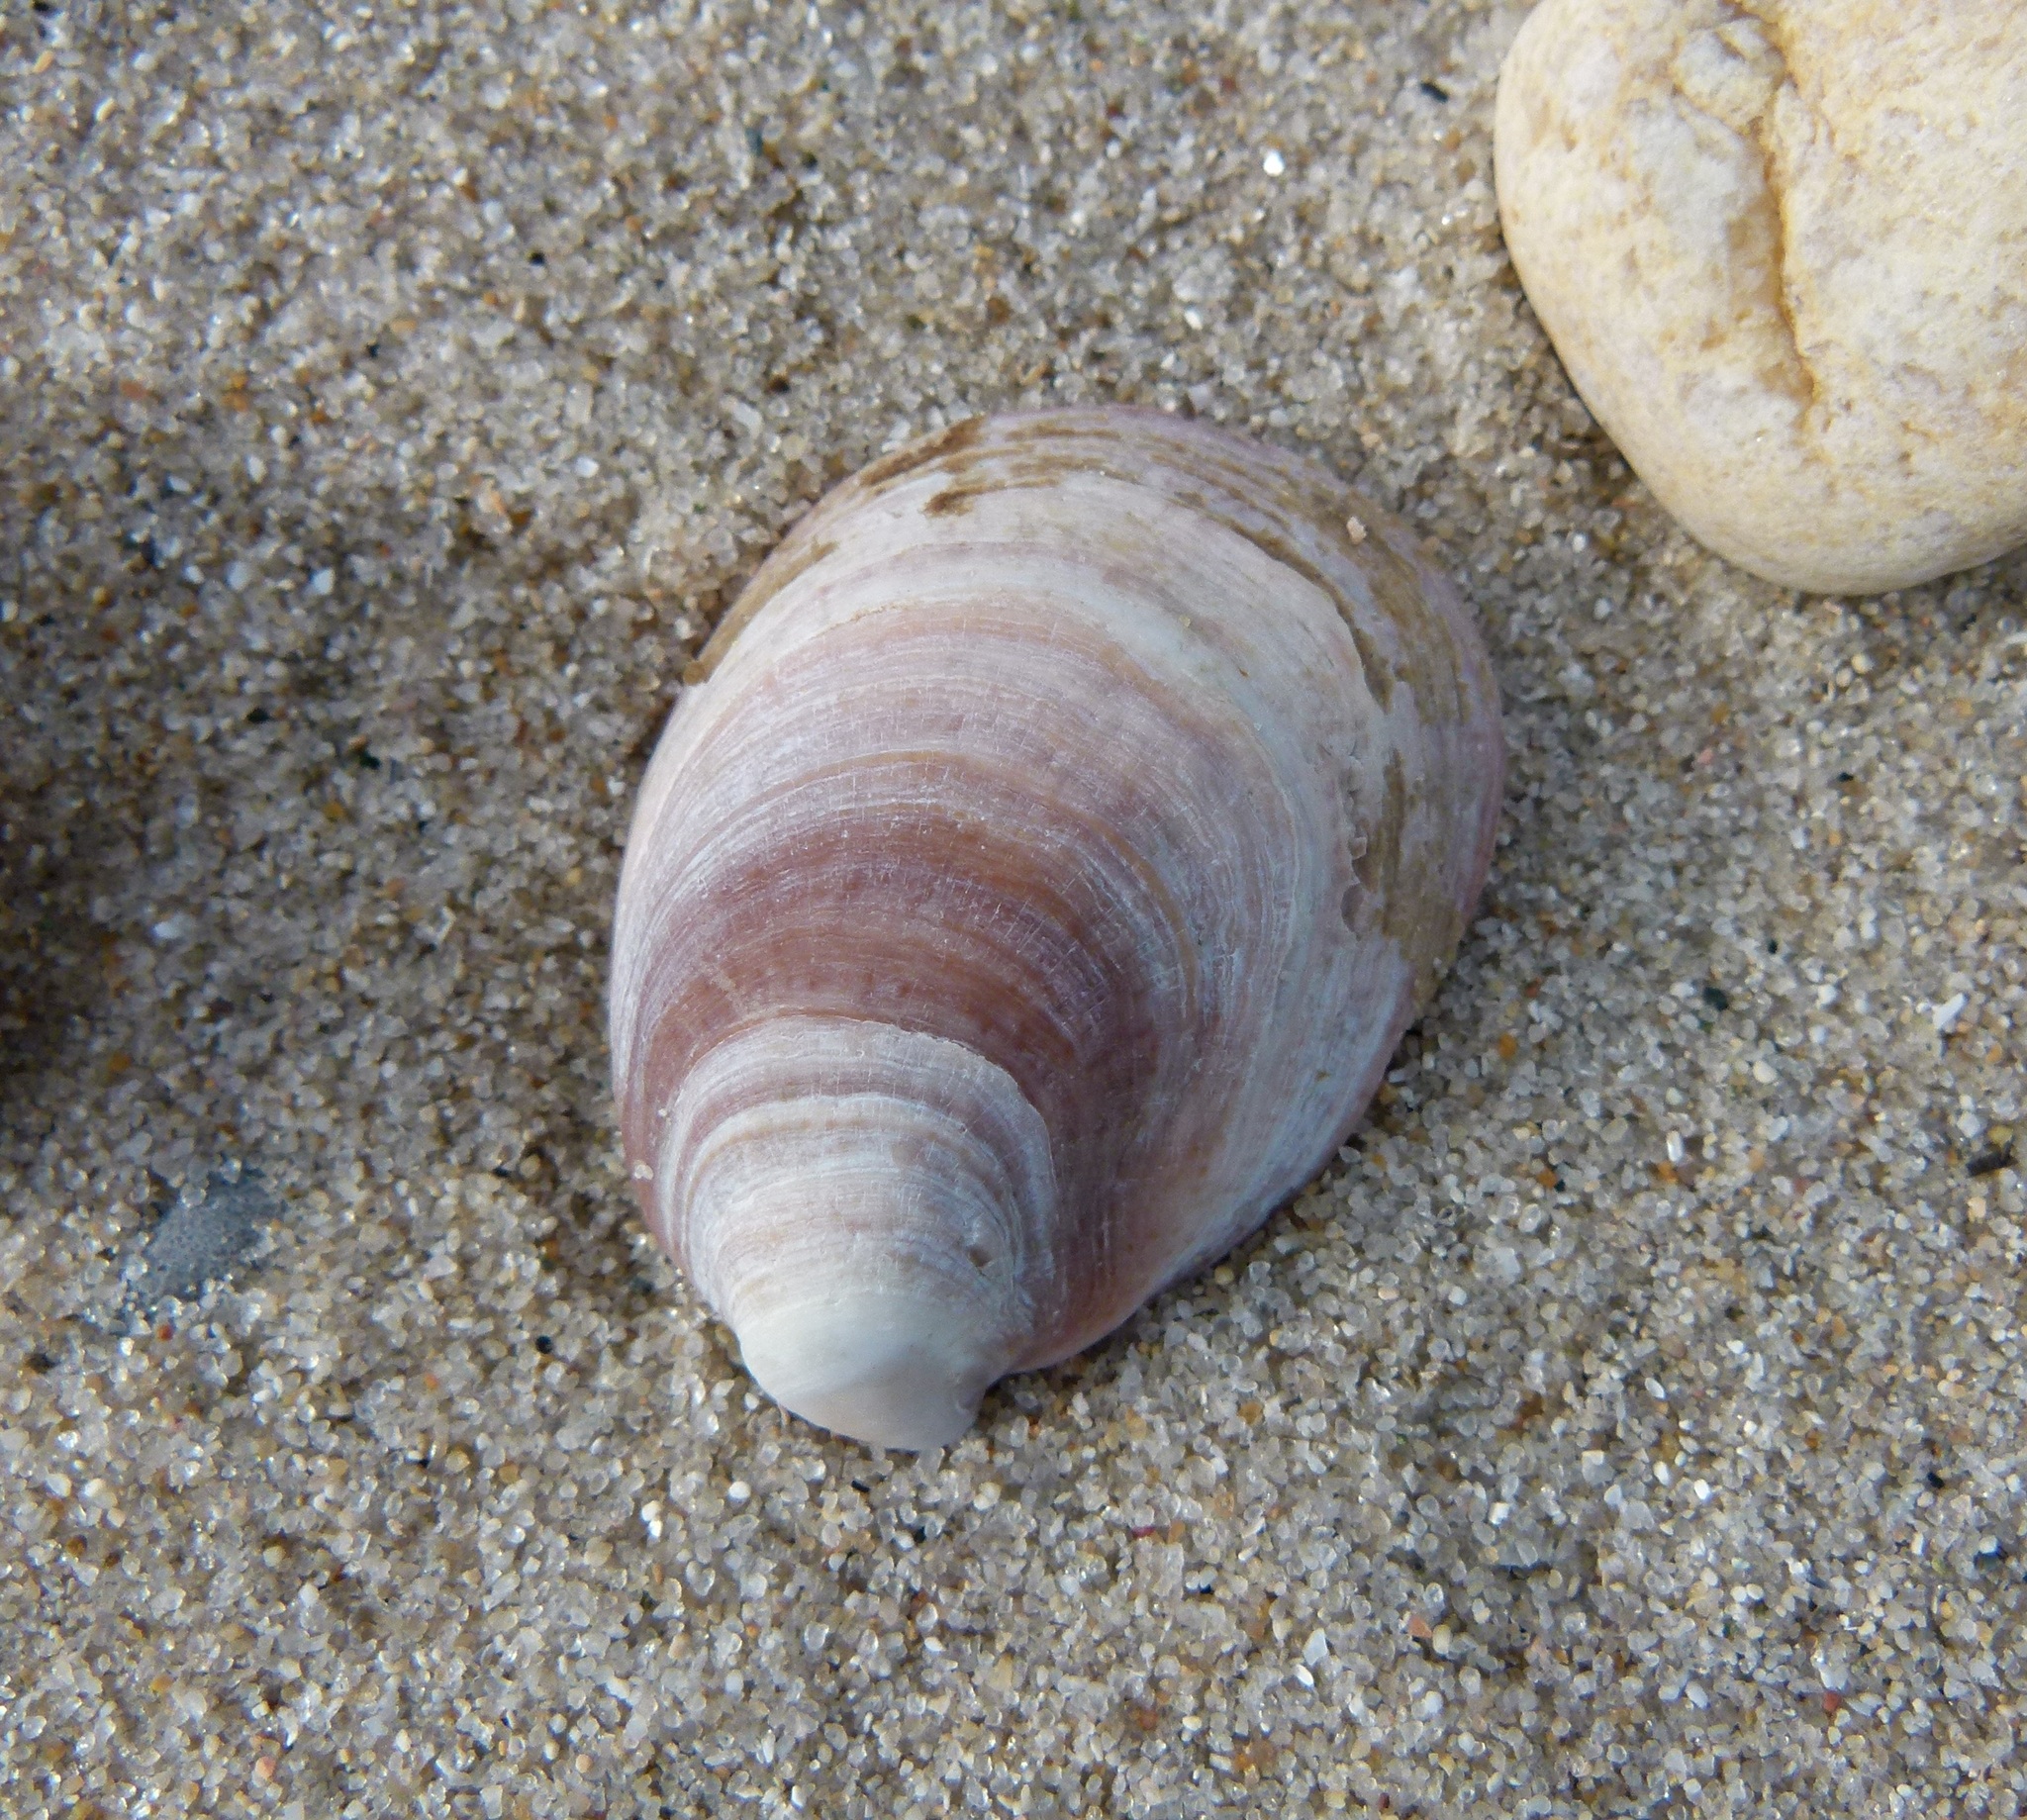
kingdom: Animalia
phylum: Mollusca
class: Gastropoda
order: Littorinimorpha
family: Calyptraeidae
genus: Crepidula
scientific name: Crepidula fornicata
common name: Slipper limpet
